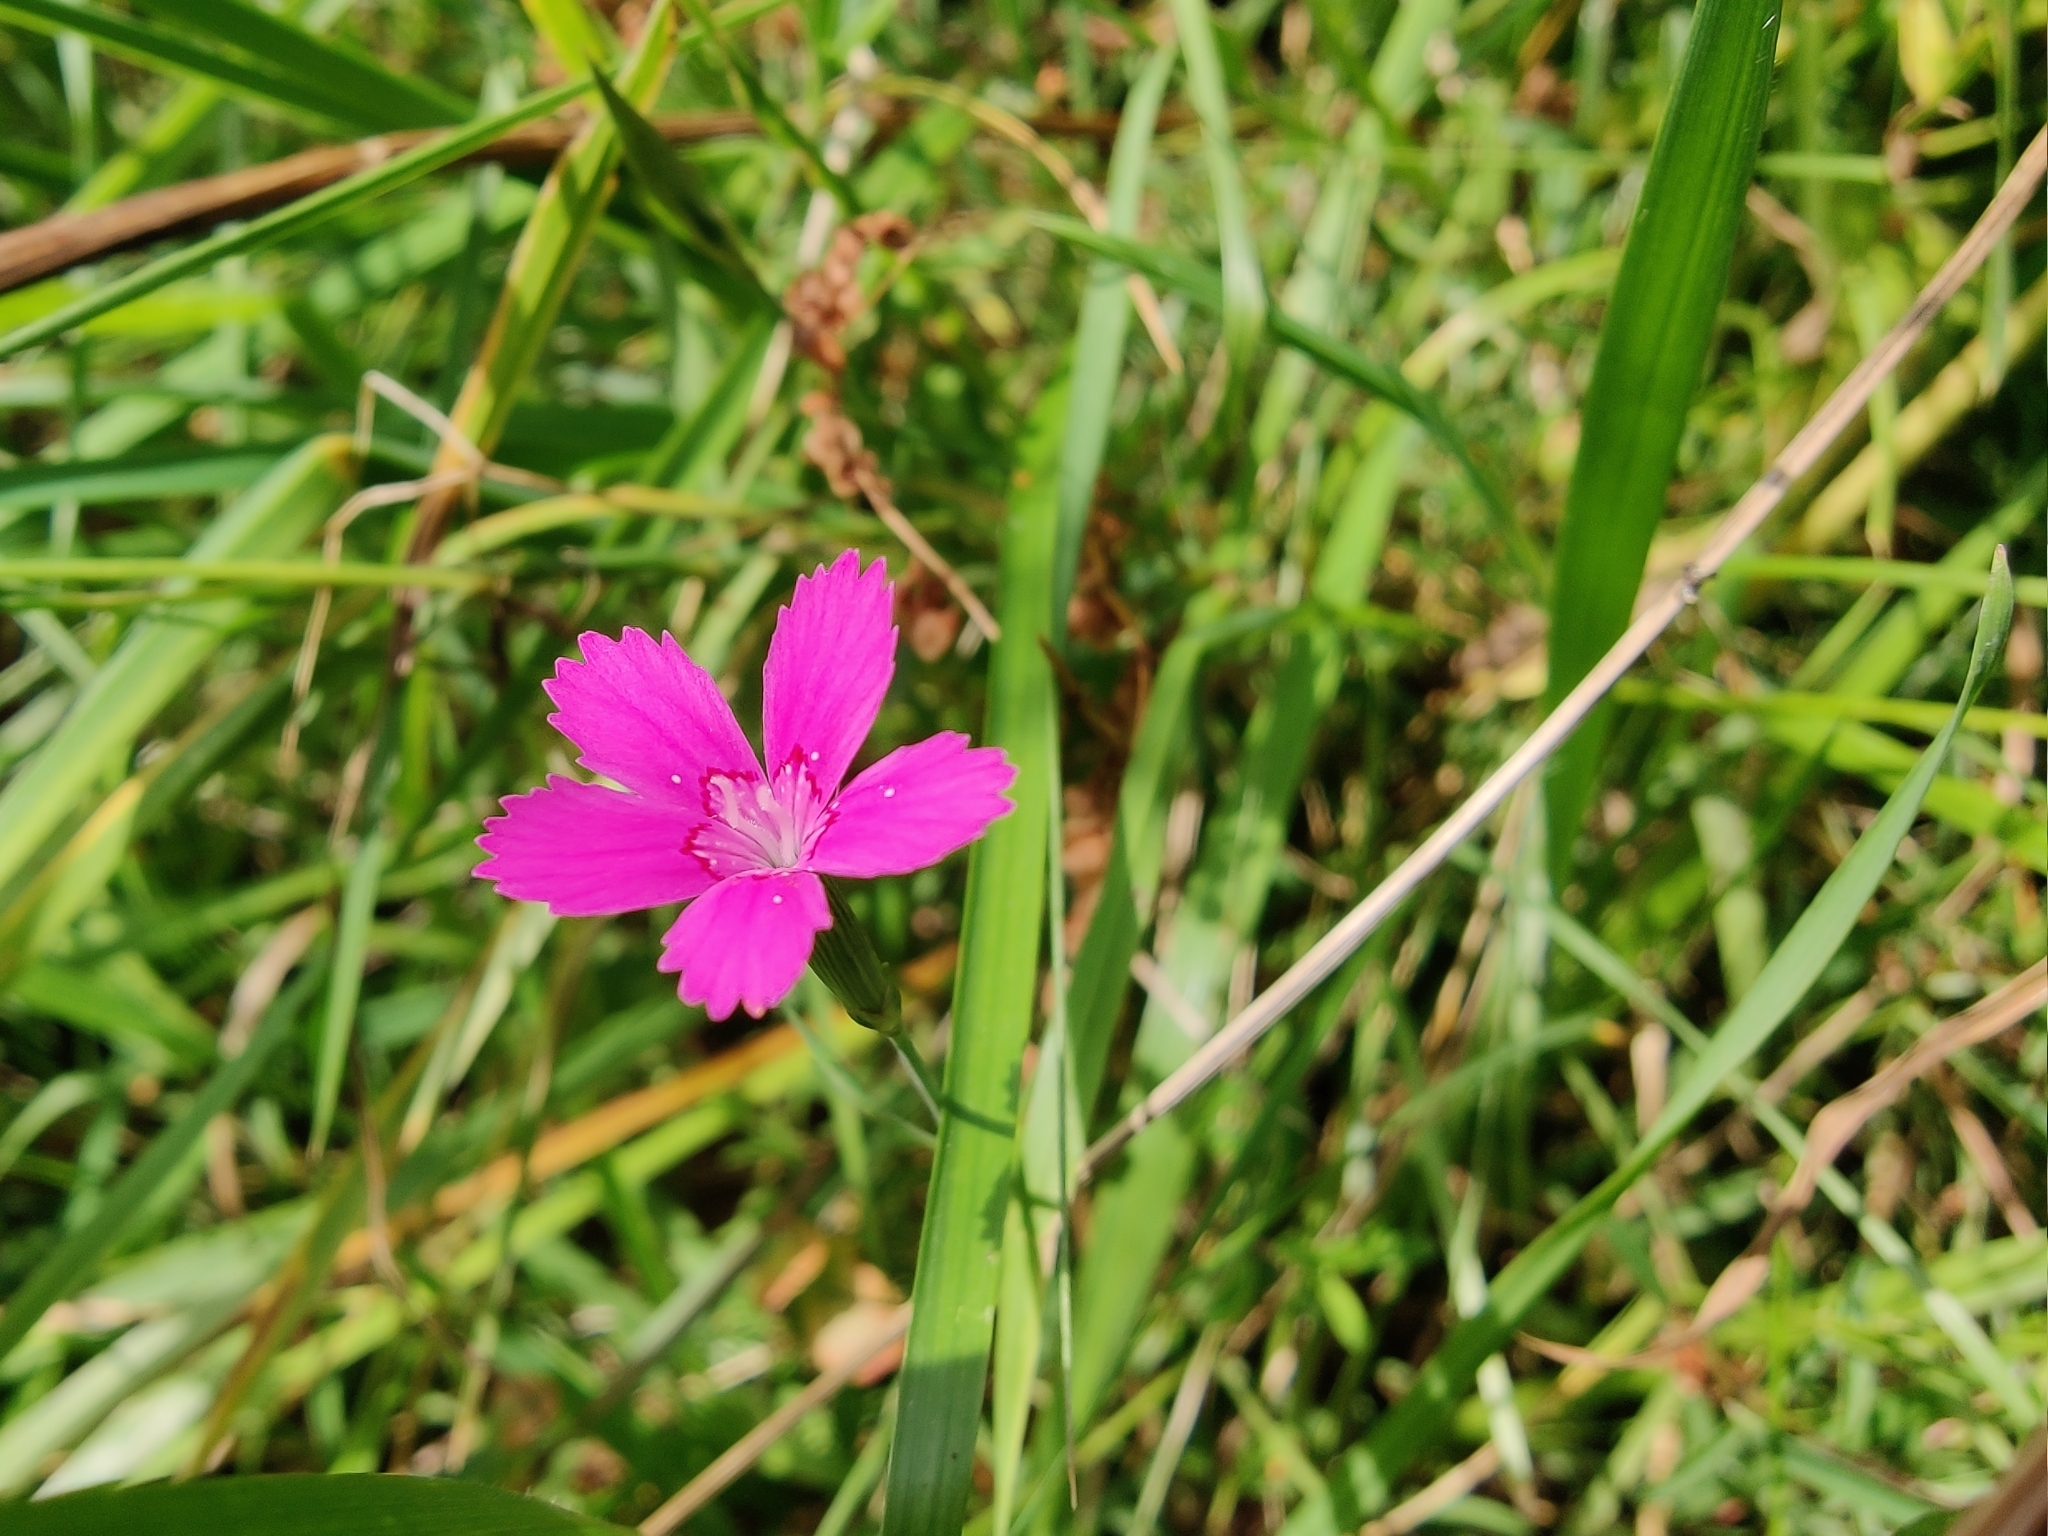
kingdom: Plantae
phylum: Tracheophyta
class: Magnoliopsida
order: Caryophyllales
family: Caryophyllaceae
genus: Dianthus
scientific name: Dianthus deltoides
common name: Maiden pink
